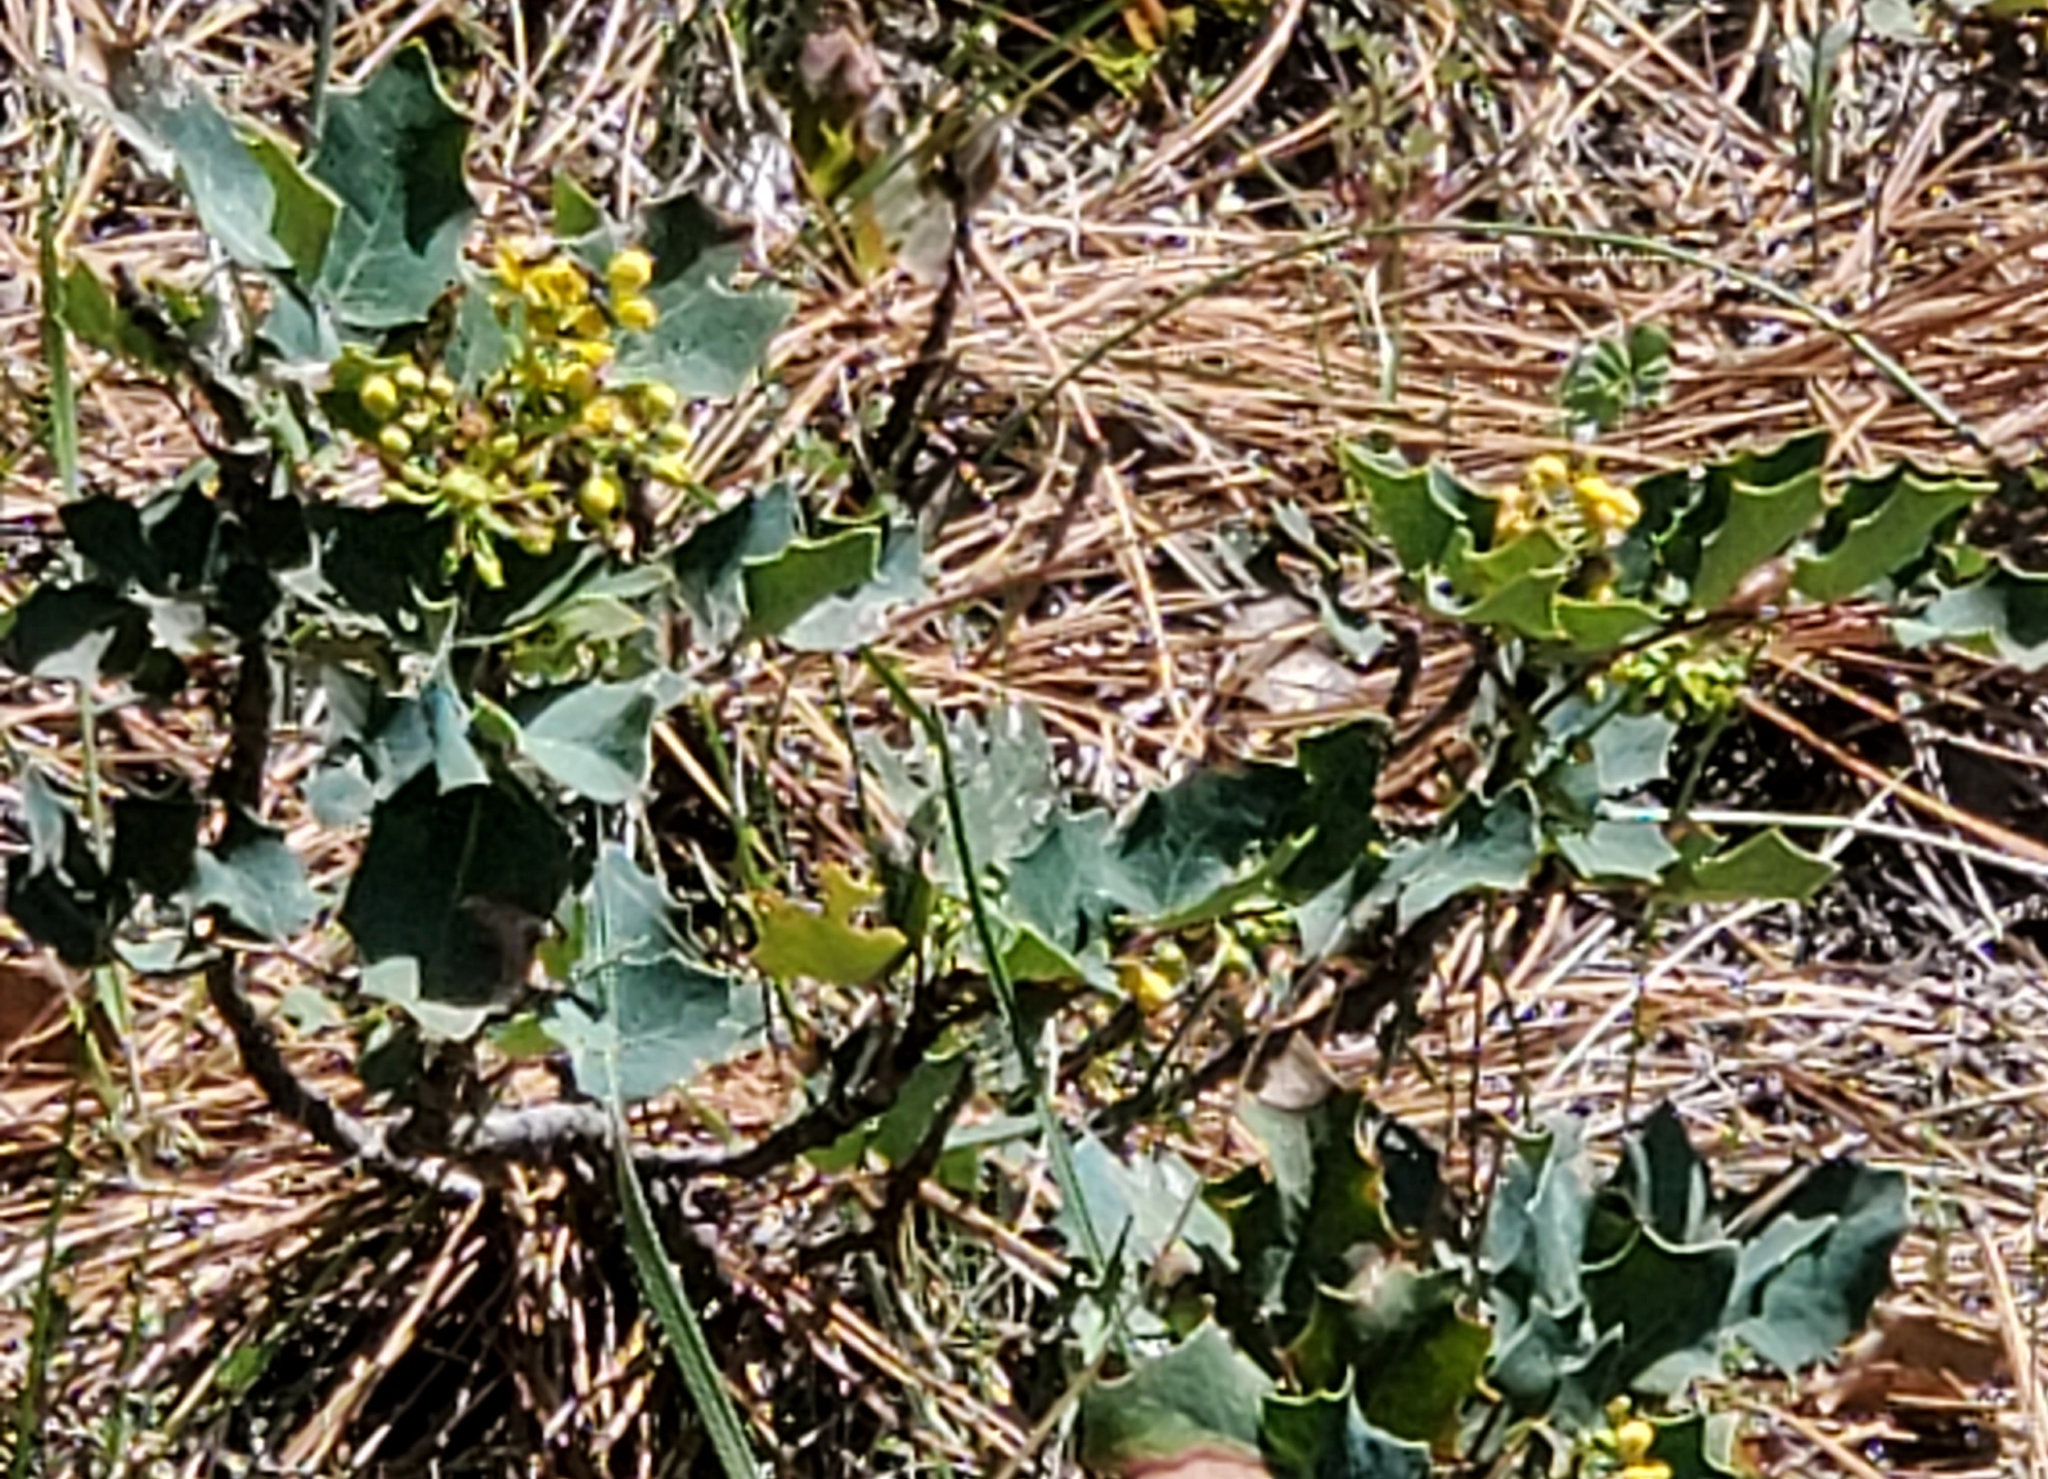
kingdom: Plantae
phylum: Tracheophyta
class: Magnoliopsida
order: Ranunculales
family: Berberidaceae
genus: Mahonia
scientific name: Mahonia dictyota
